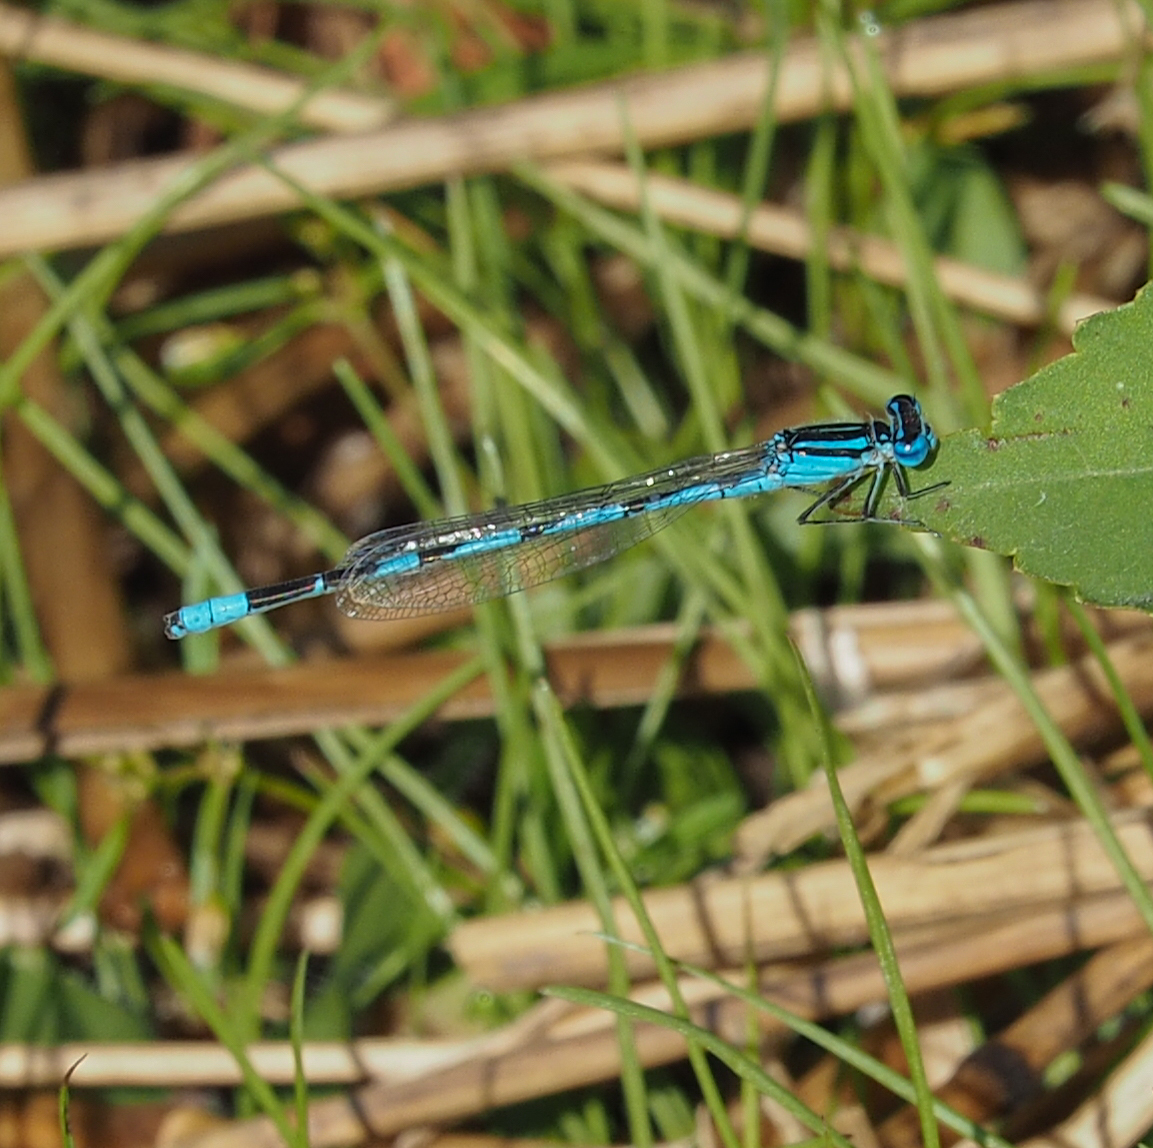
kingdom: Animalia
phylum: Arthropoda
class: Insecta
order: Odonata
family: Coenagrionidae
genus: Enallagma
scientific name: Enallagma durum
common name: Big bluet
